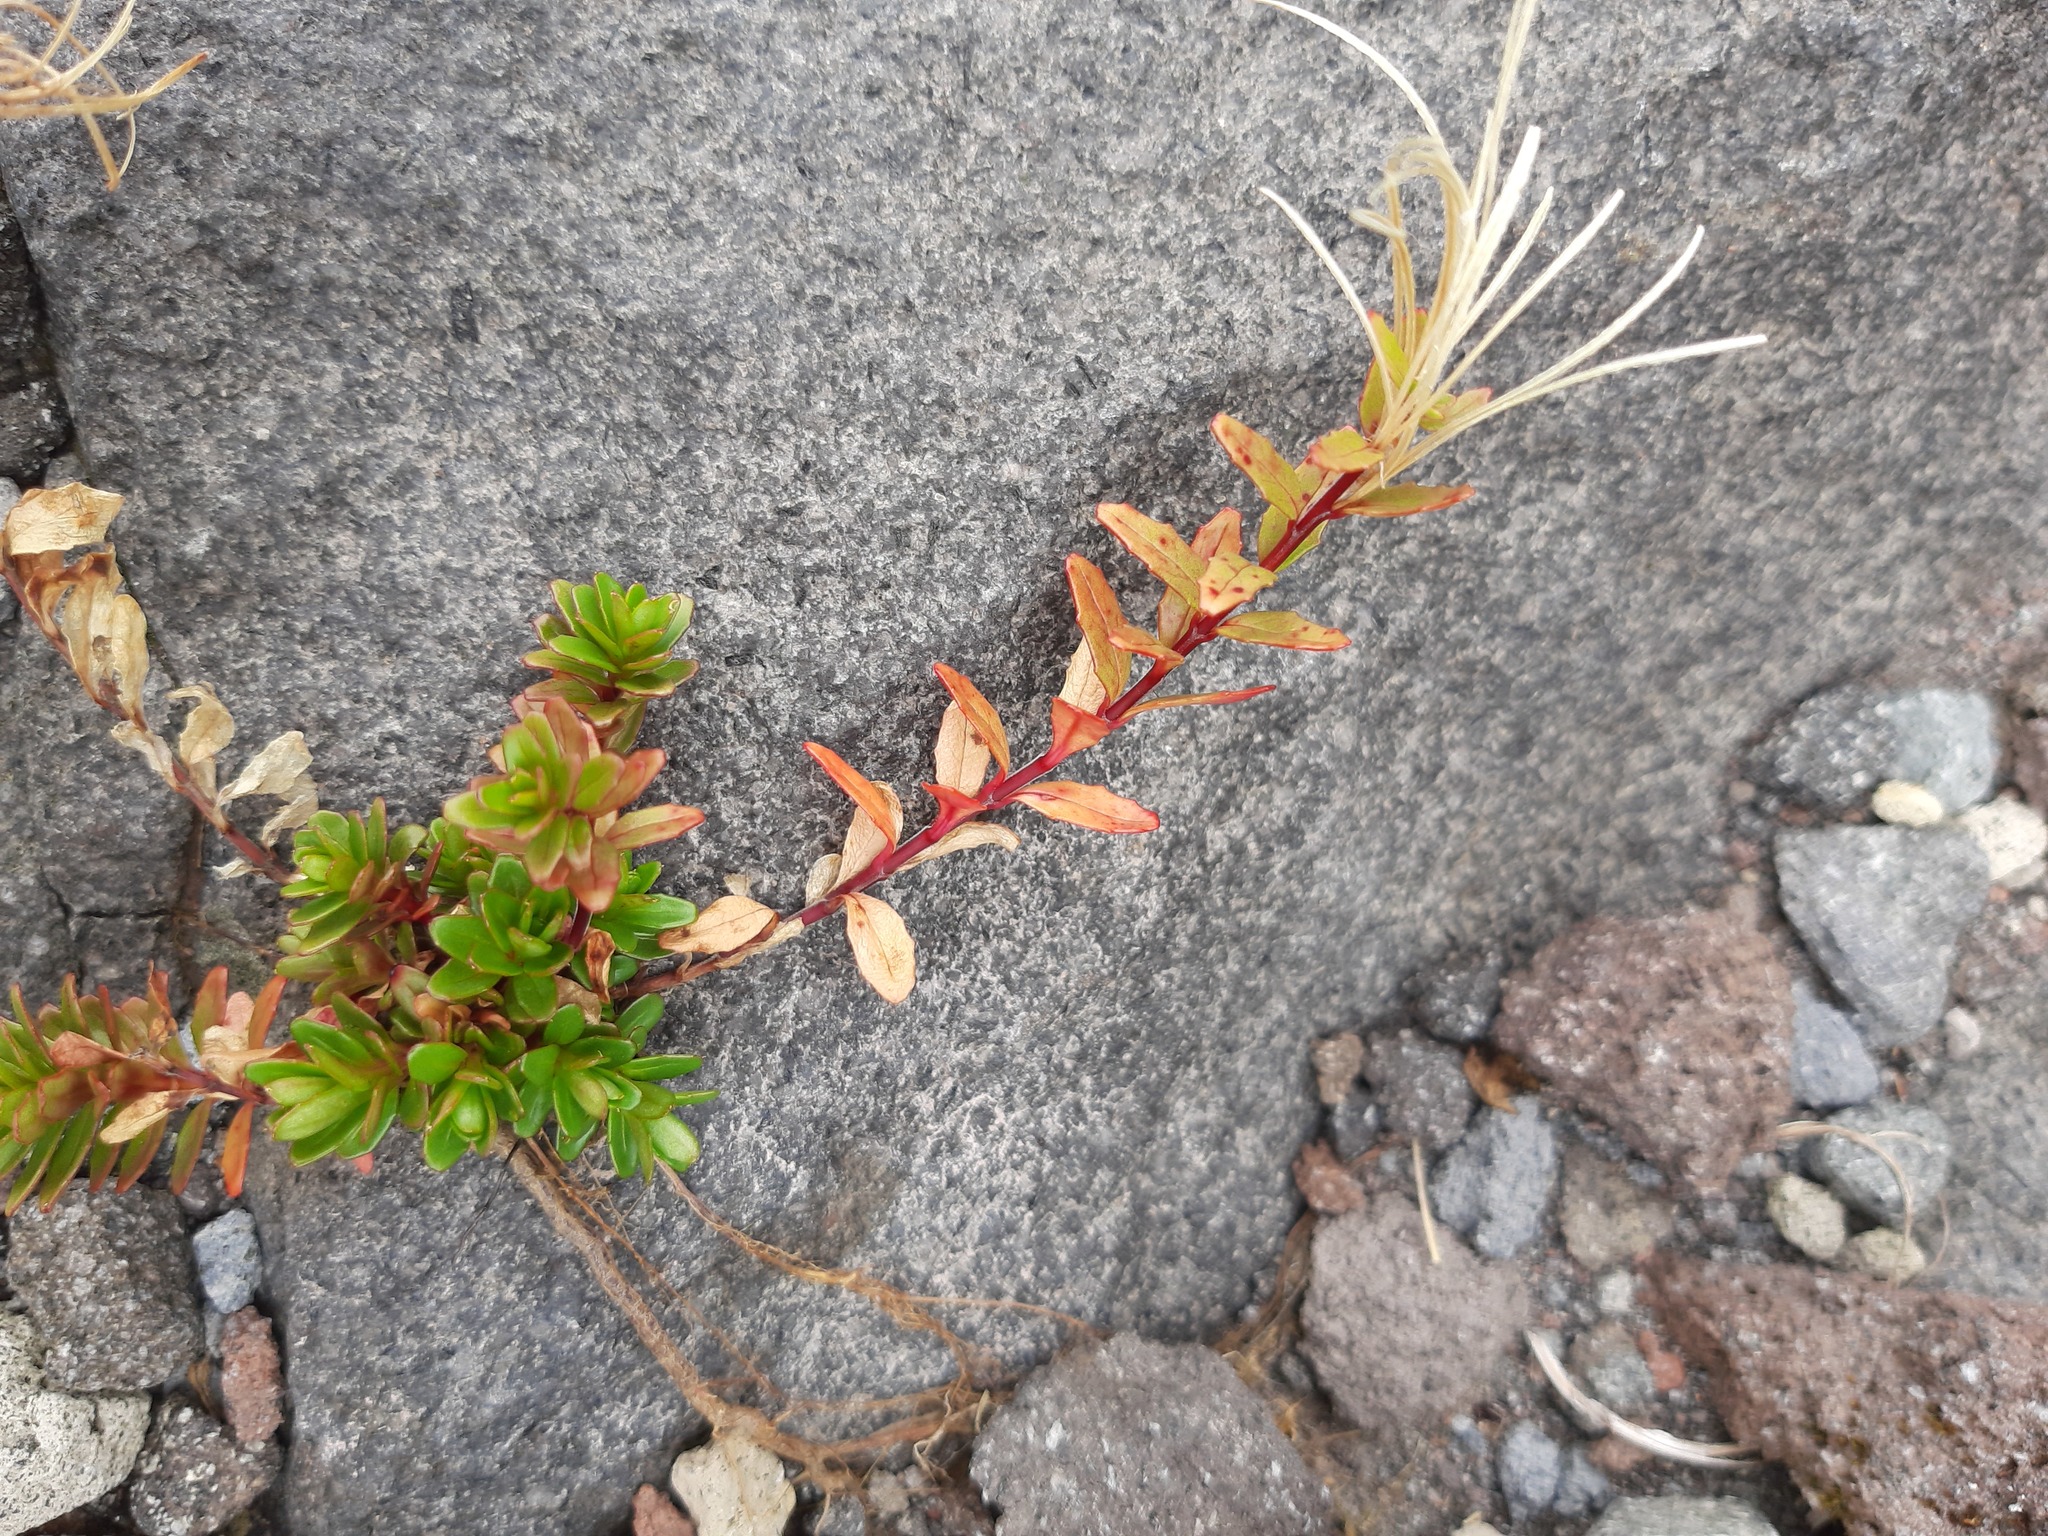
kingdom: Plantae
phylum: Tracheophyta
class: Magnoliopsida
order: Myrtales
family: Onagraceae
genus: Epilobium
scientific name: Epilobium glabellum
